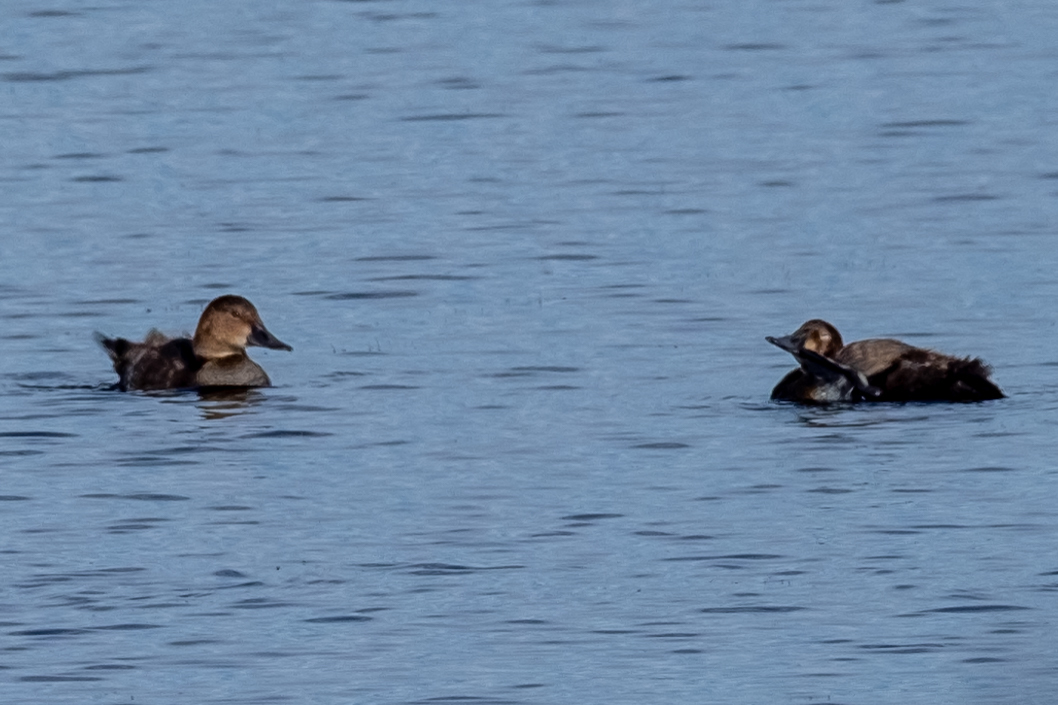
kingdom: Animalia
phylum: Chordata
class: Aves
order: Anseriformes
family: Anatidae
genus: Aythya
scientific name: Aythya ferina
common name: Common pochard
